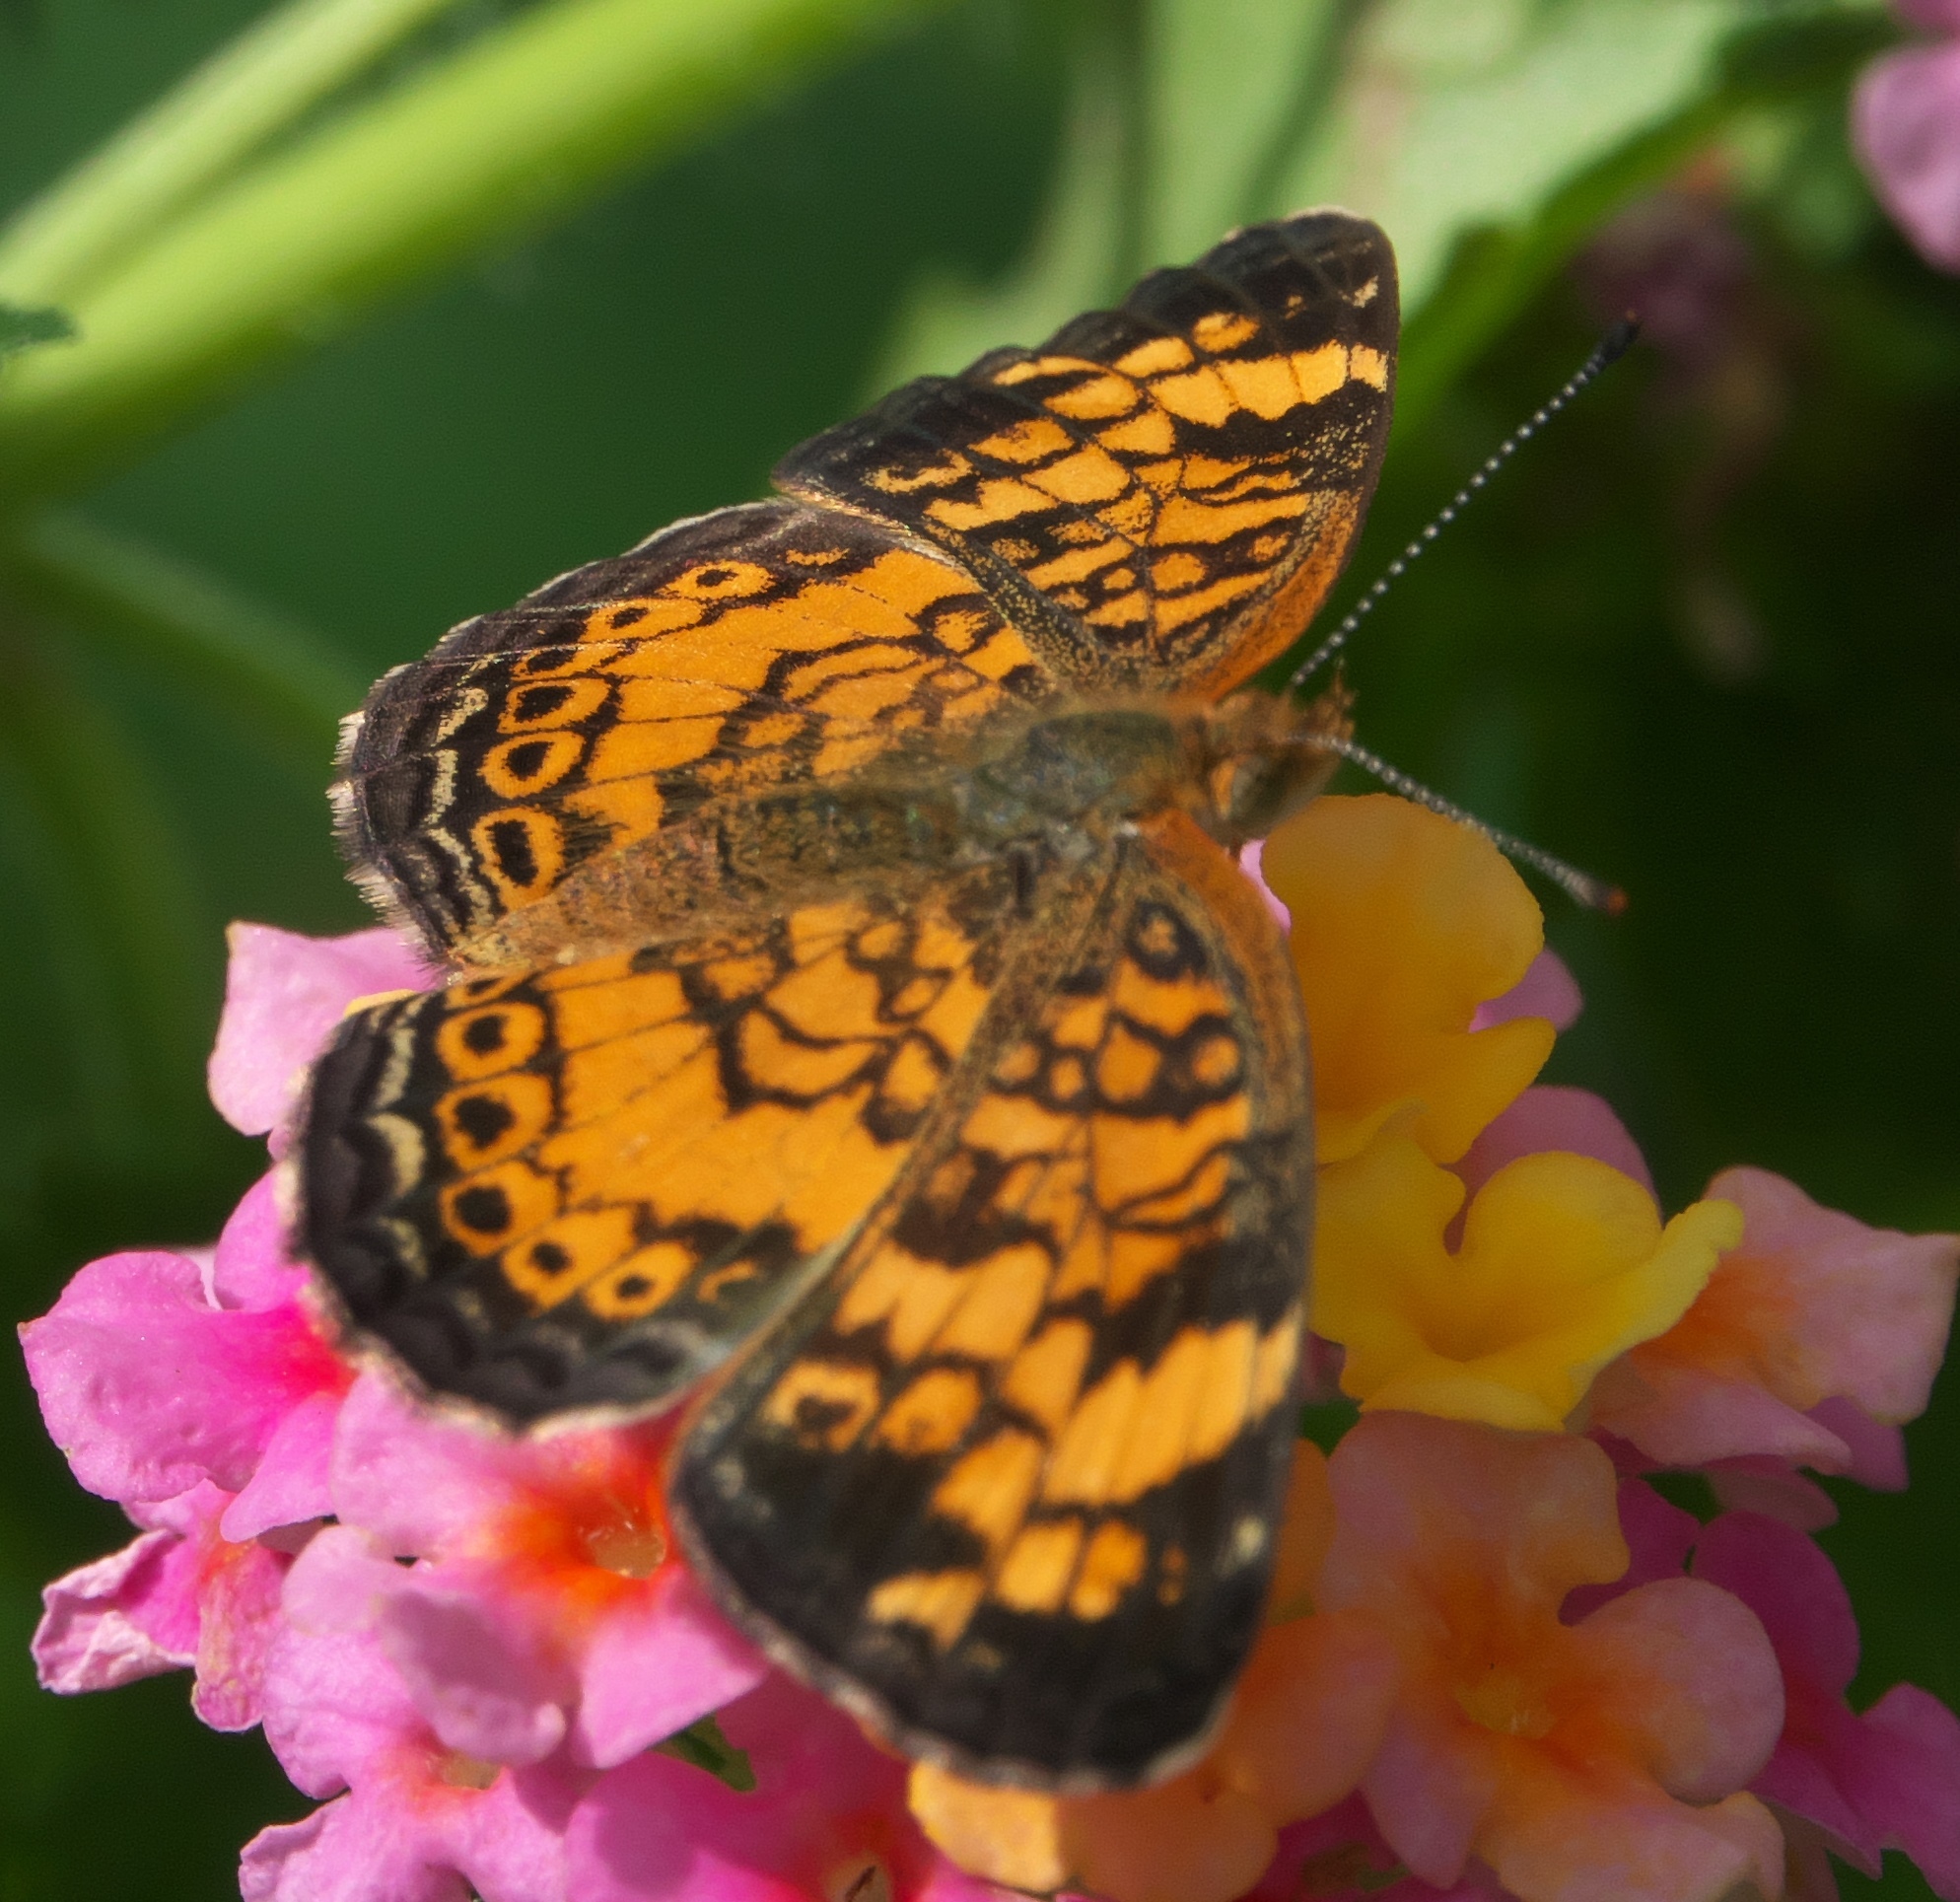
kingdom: Animalia
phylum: Arthropoda
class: Insecta
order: Lepidoptera
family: Nymphalidae
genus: Phyciodes
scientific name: Phyciodes tharos
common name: Pearl crescent
